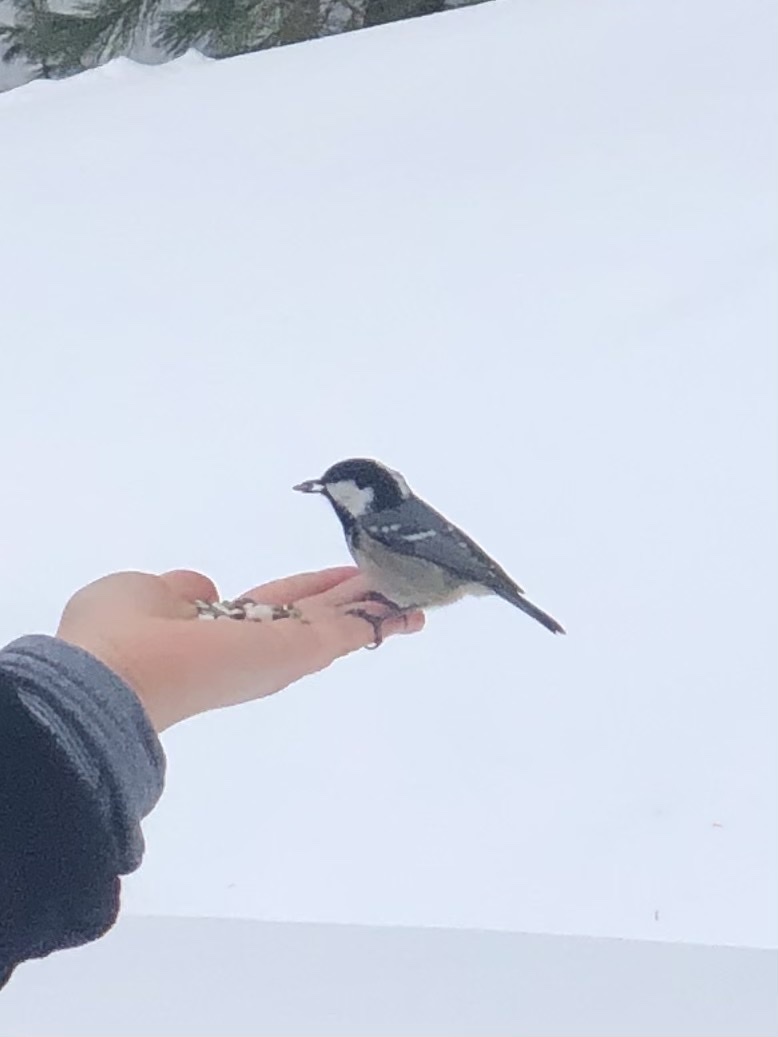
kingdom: Animalia
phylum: Chordata
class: Aves
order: Passeriformes
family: Paridae
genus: Periparus
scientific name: Periparus ater
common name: Coal tit
